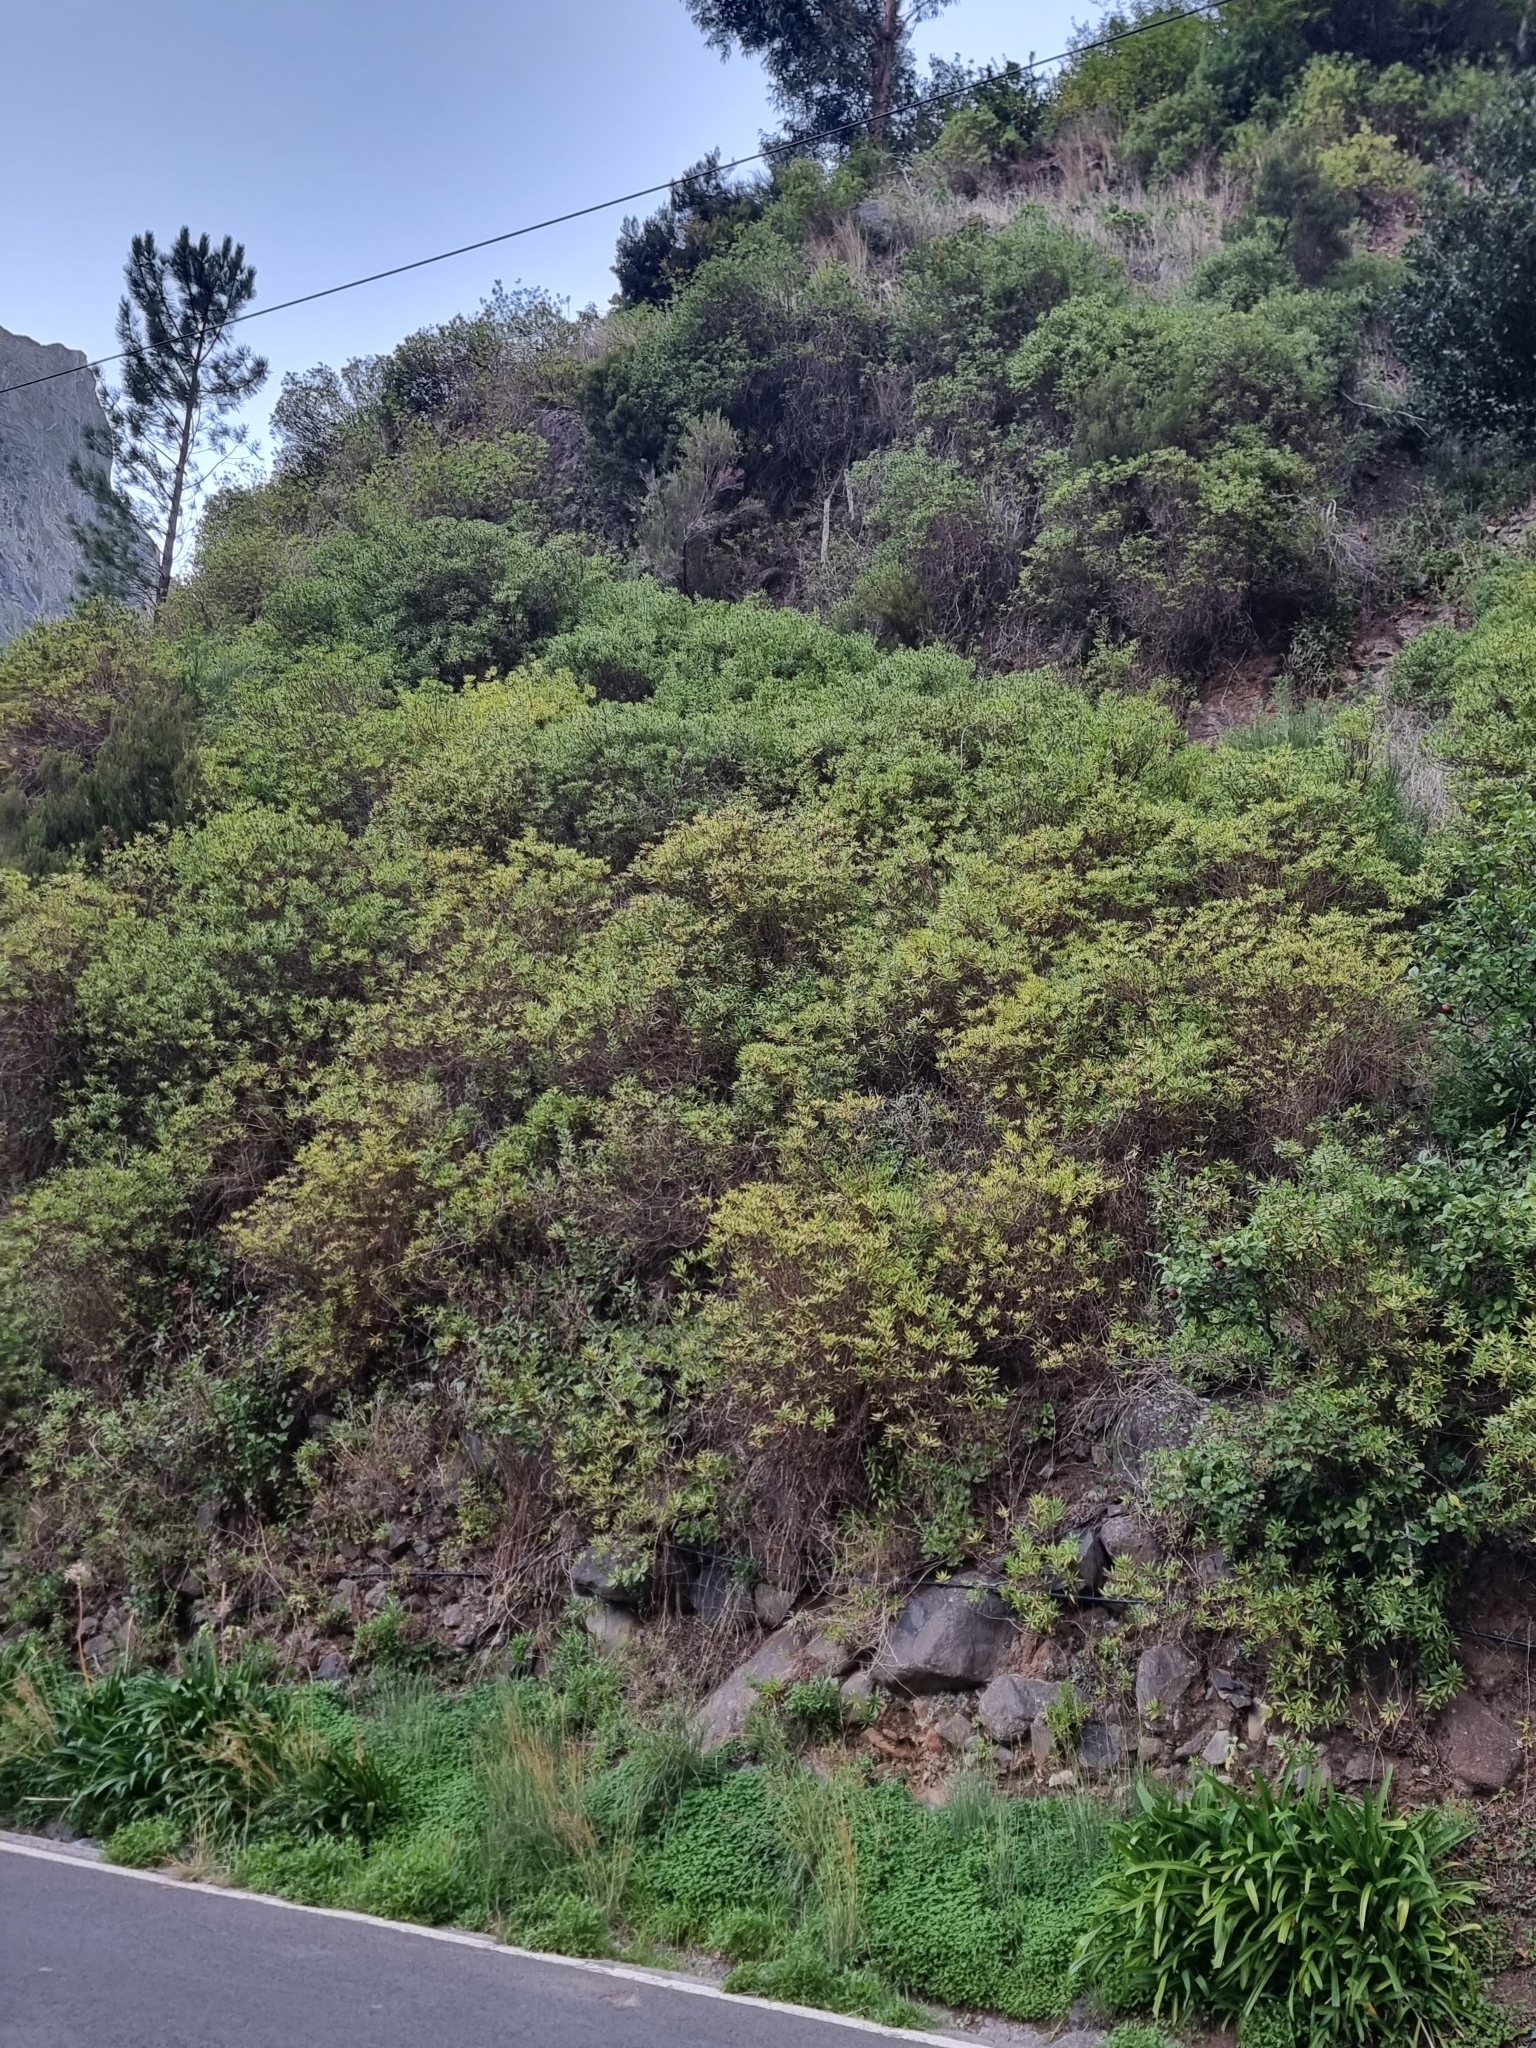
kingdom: Plantae
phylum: Tracheophyta
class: Magnoliopsida
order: Lamiales
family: Plantaginaceae
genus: Globularia
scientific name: Globularia salicina
